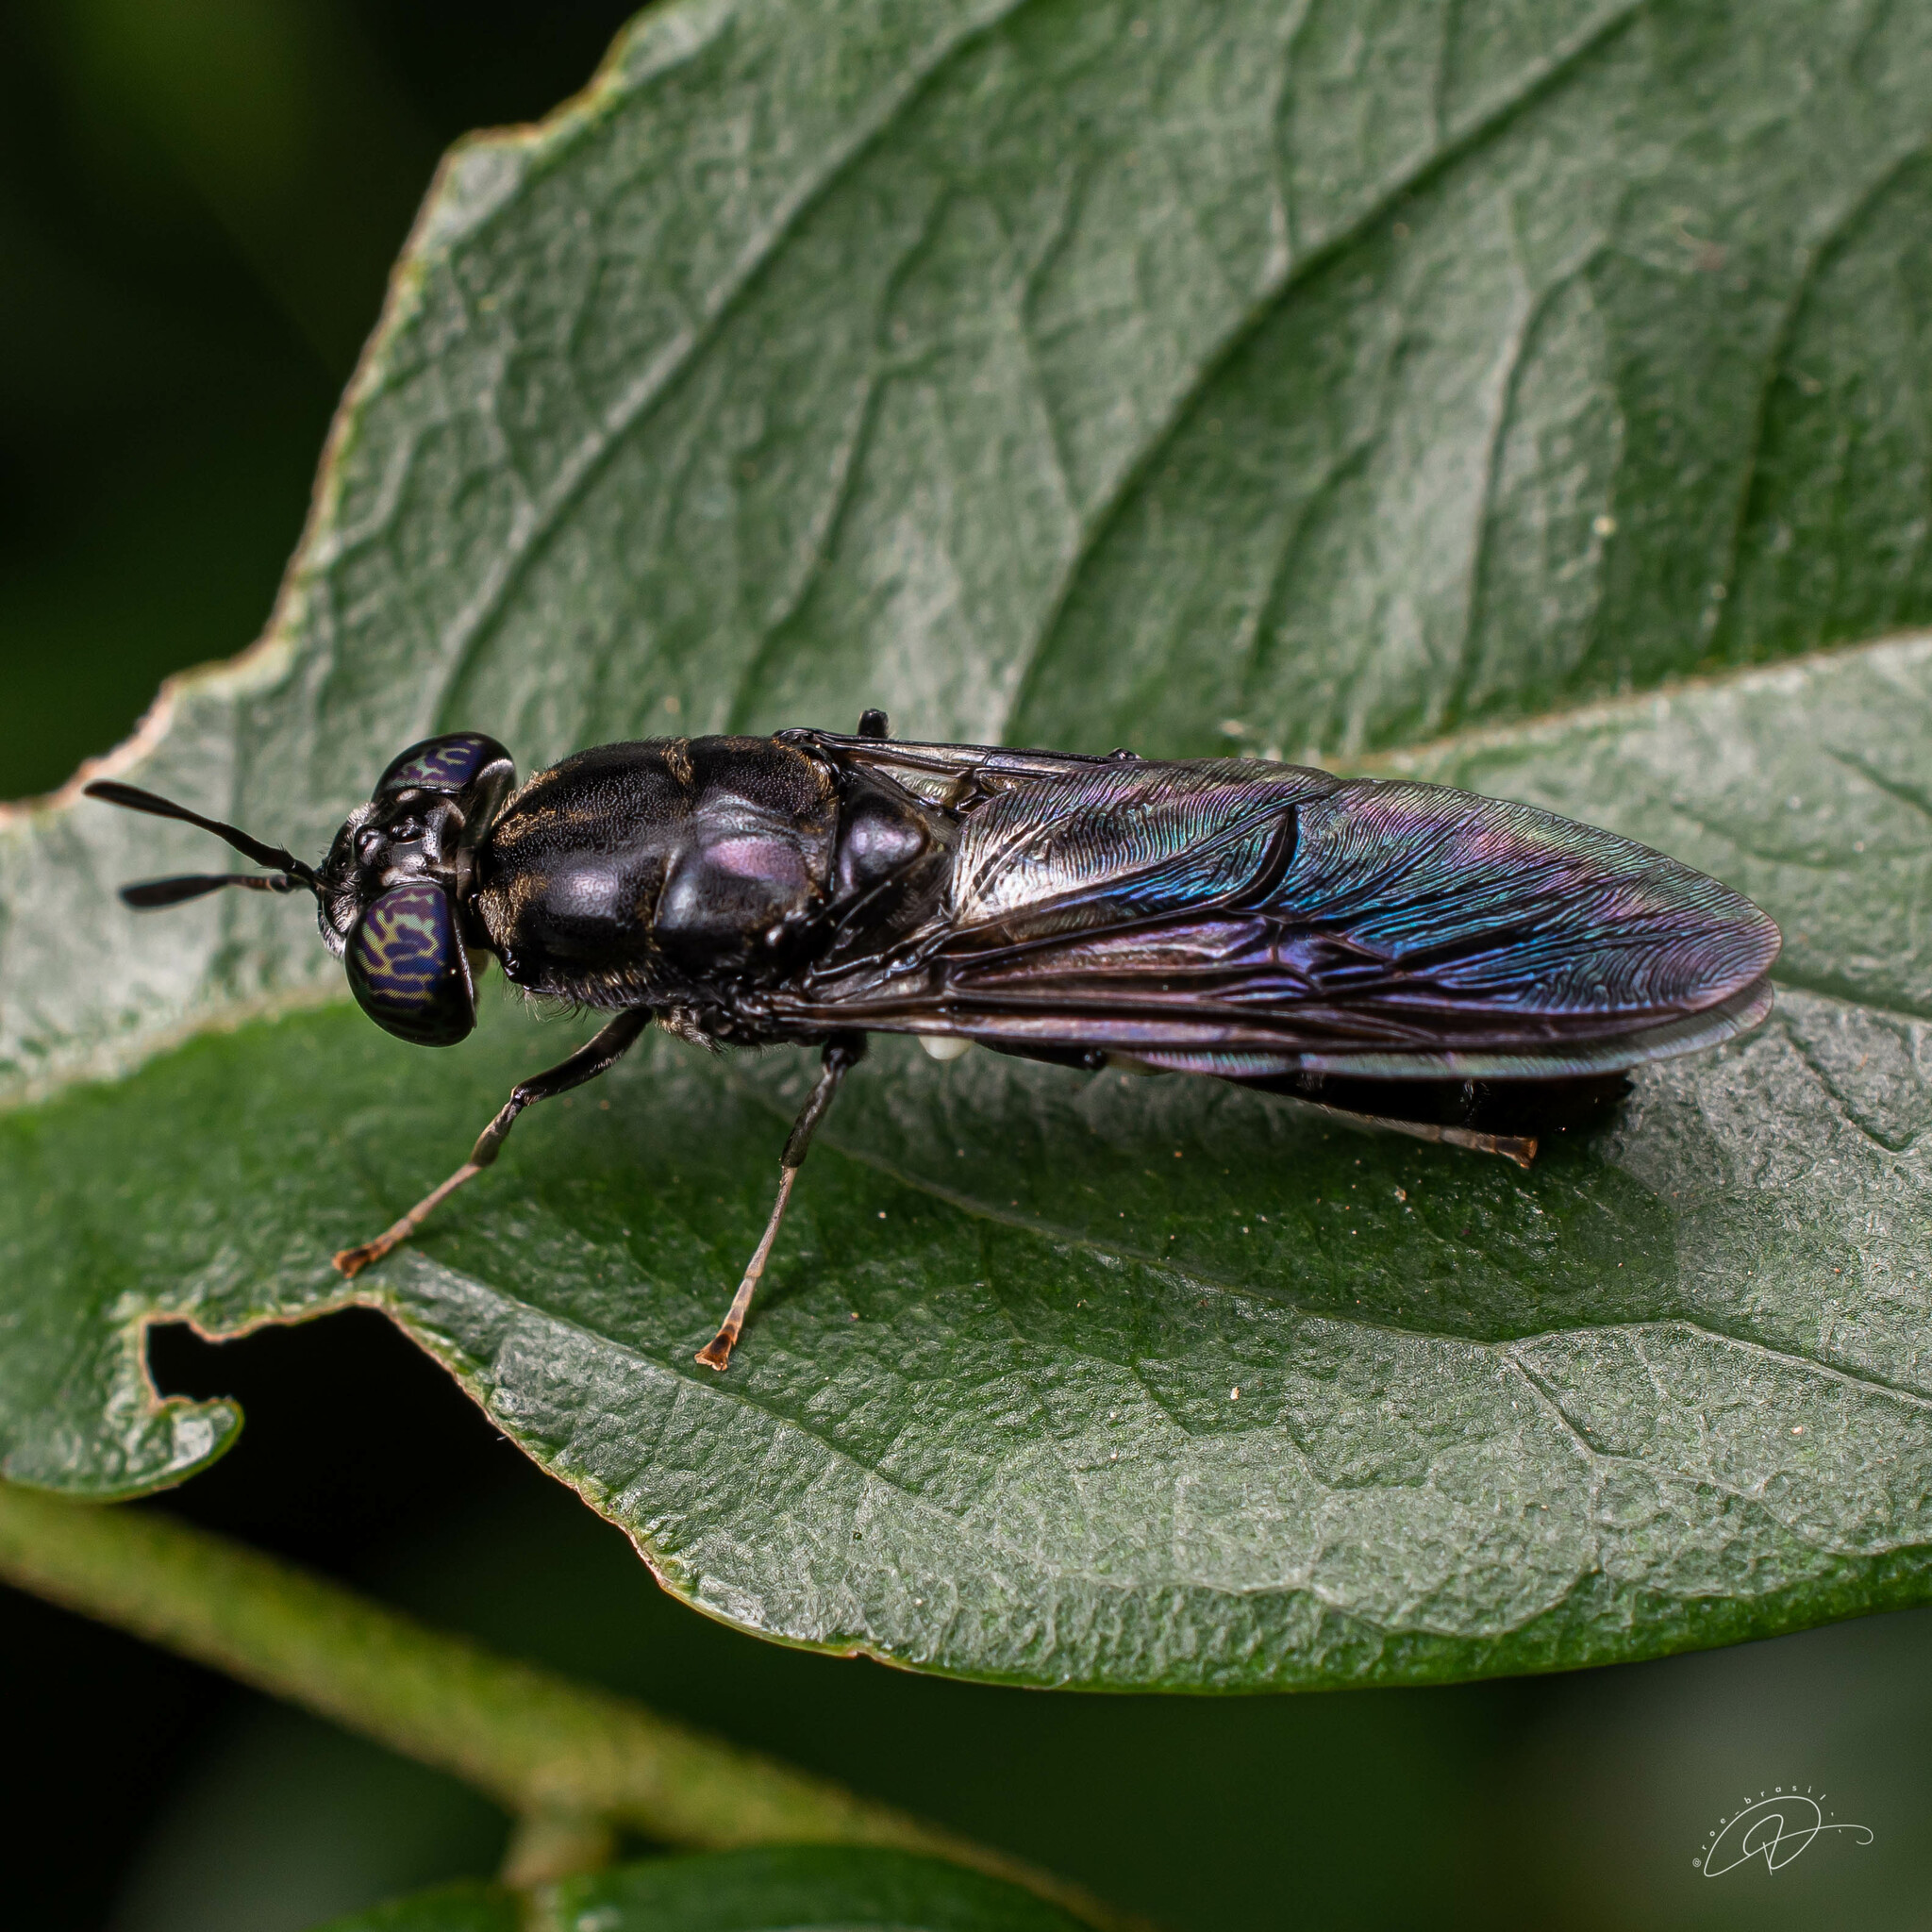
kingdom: Animalia
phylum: Arthropoda
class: Insecta
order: Diptera
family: Stratiomyidae
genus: Hermetia
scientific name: Hermetia illucens
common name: Black soldier fly
